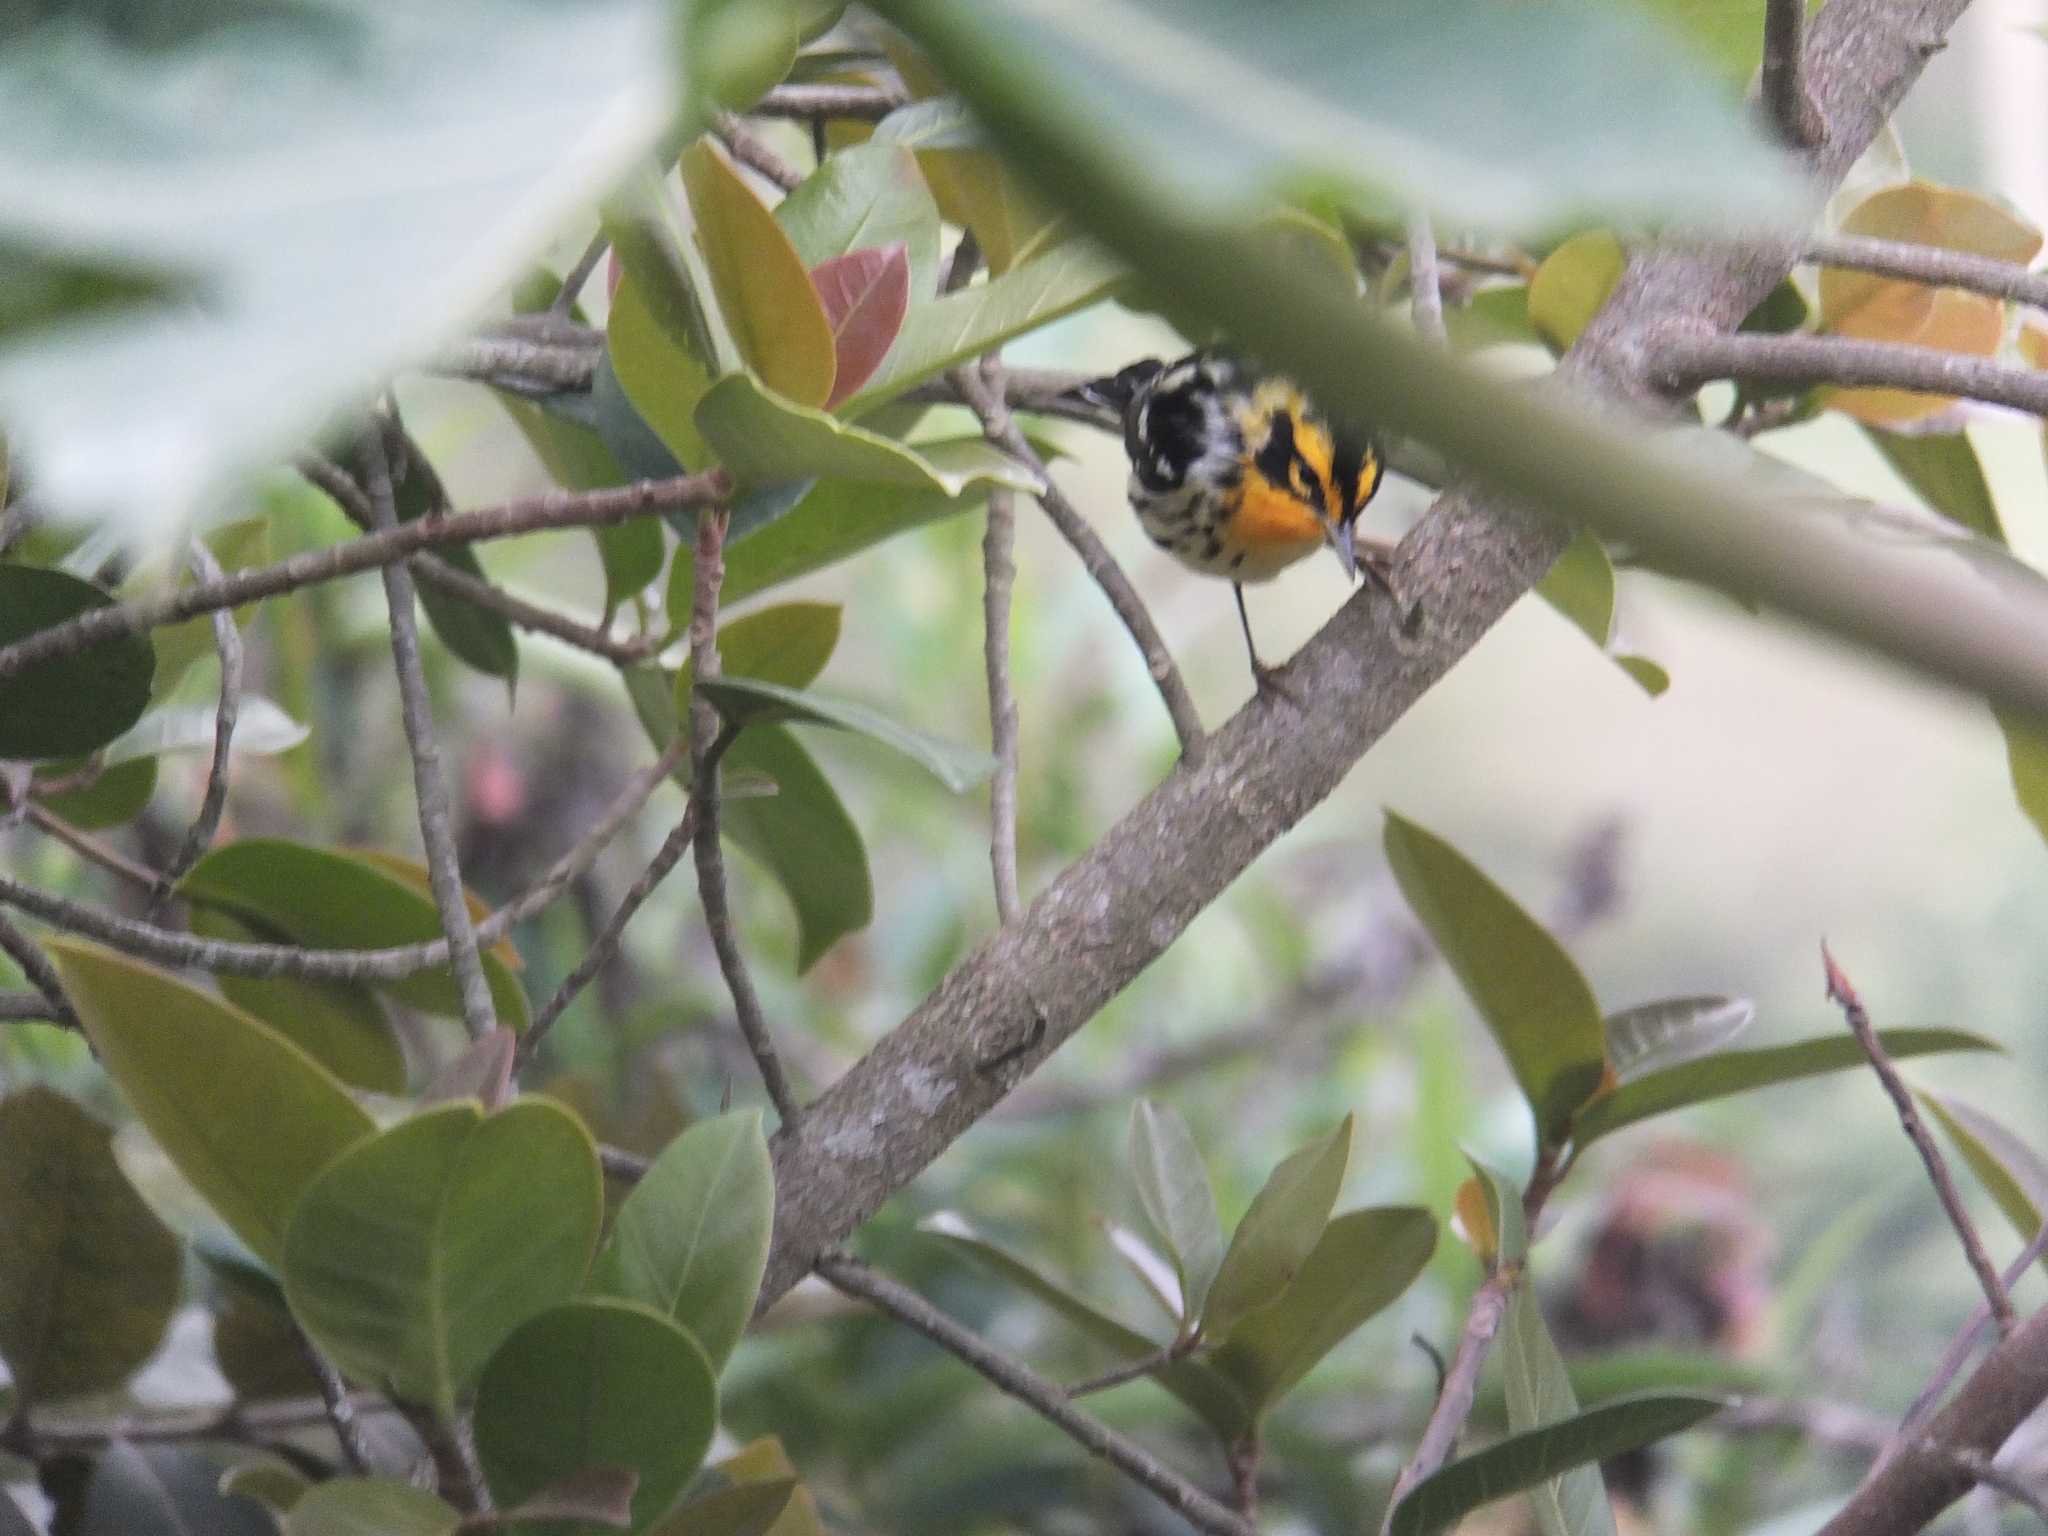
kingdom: Animalia
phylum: Chordata
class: Aves
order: Passeriformes
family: Parulidae
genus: Setophaga
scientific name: Setophaga fusca
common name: Blackburnian warbler
